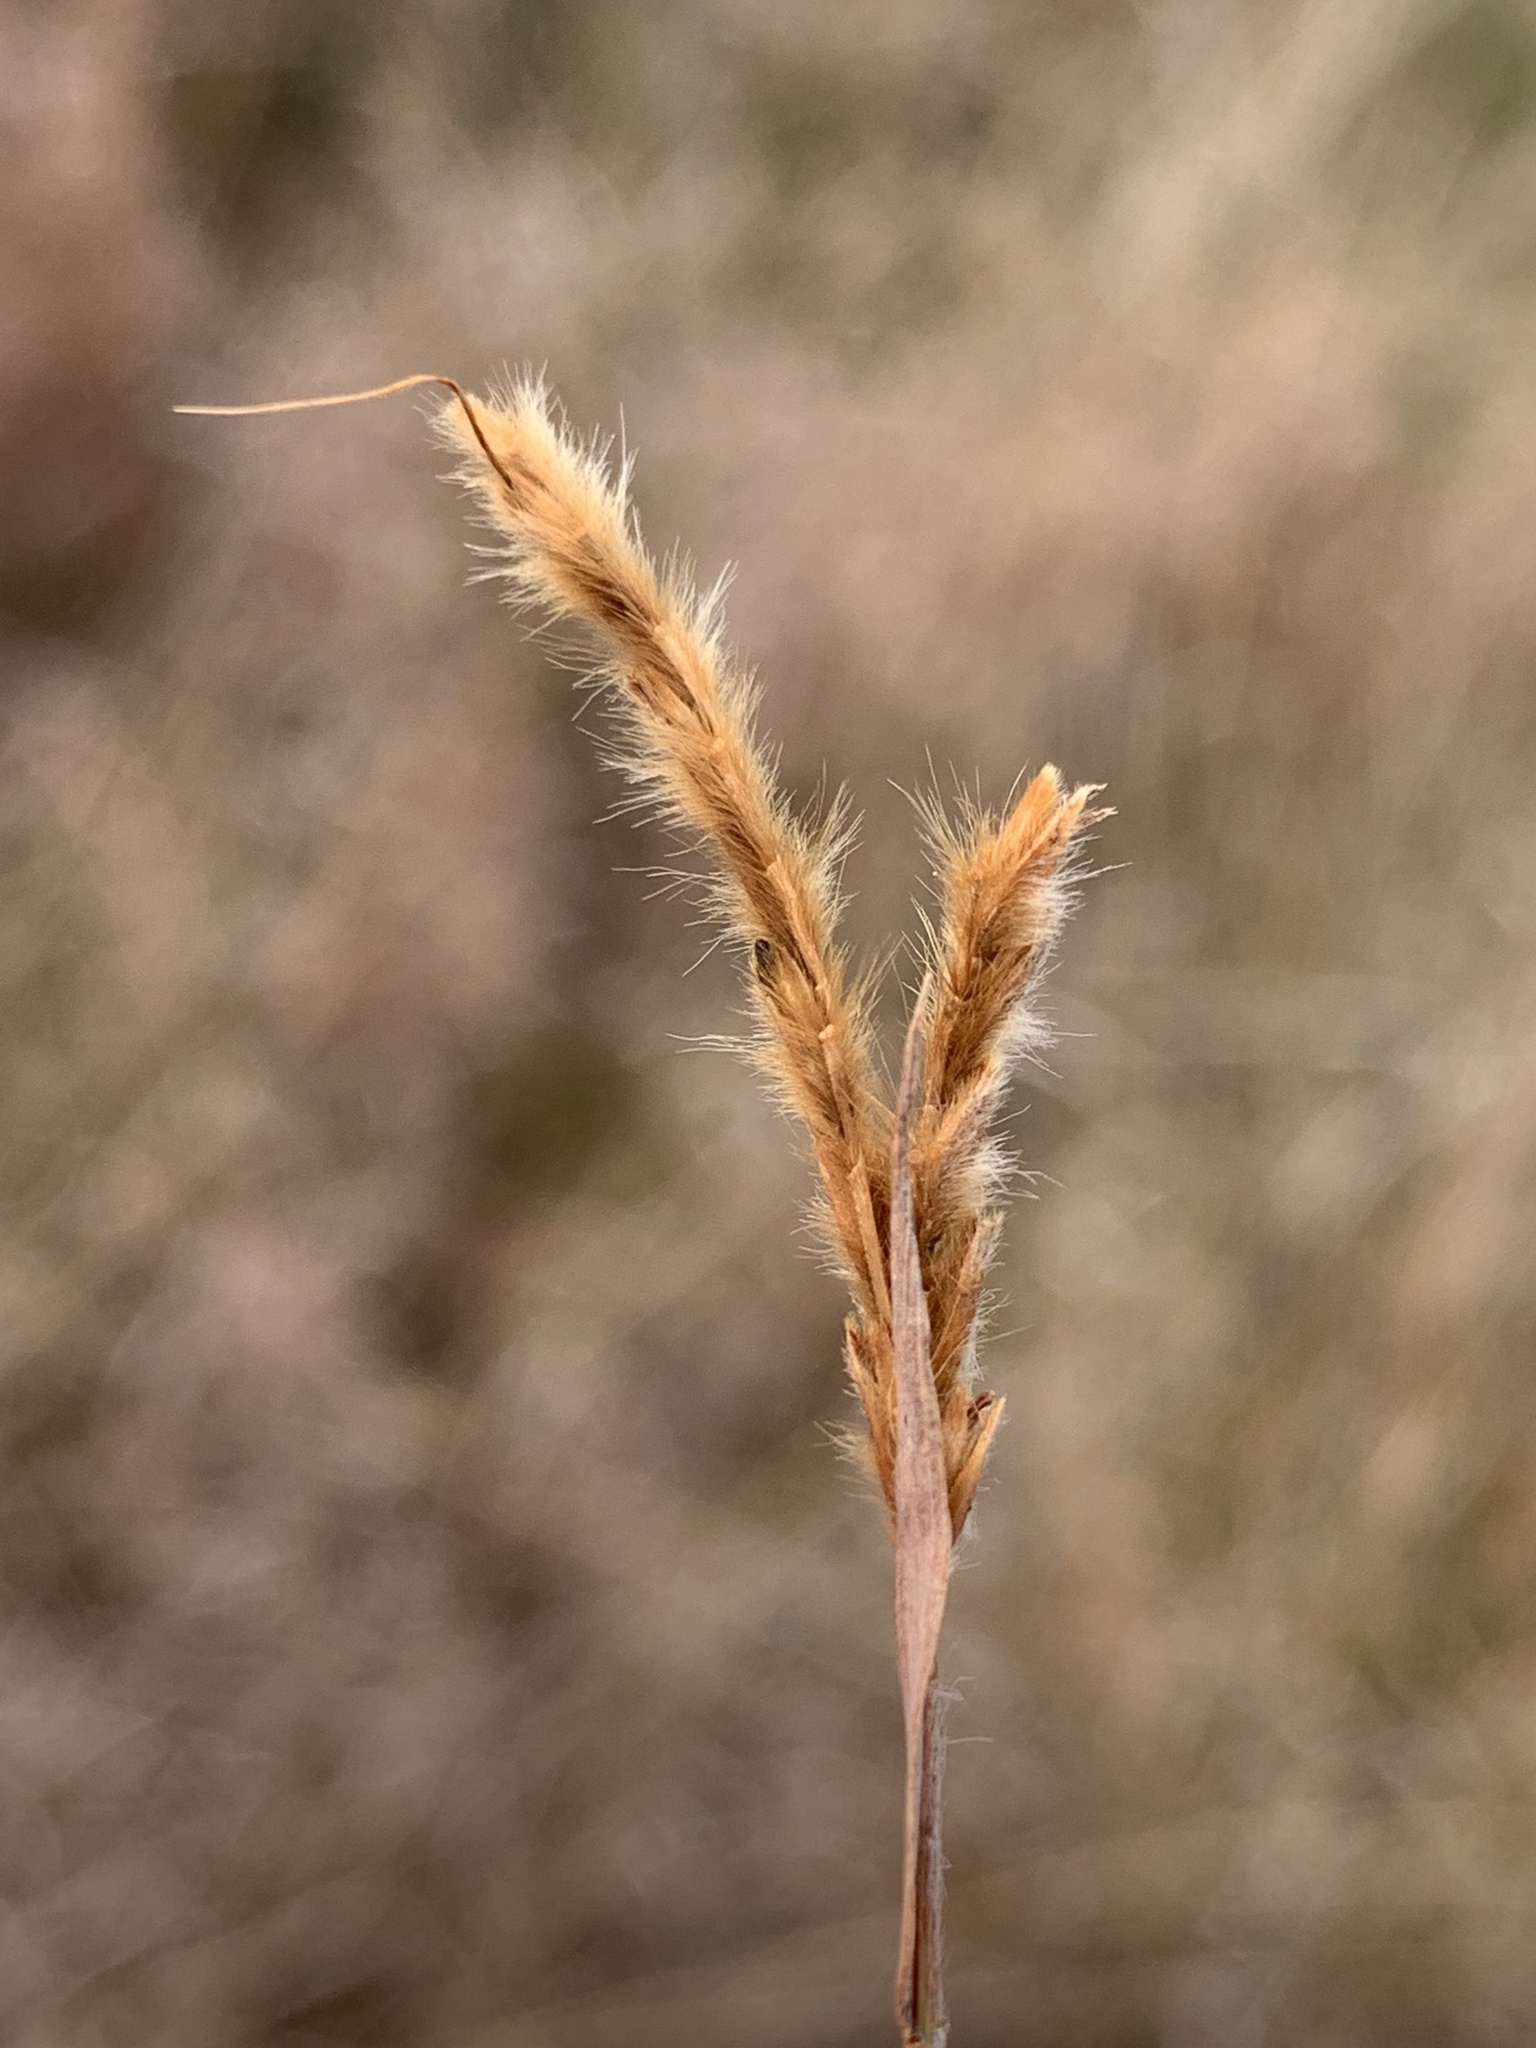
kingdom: Plantae
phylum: Tracheophyta
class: Liliopsida
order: Poales
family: Poaceae
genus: Eulalia
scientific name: Eulalia aurea
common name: Silky browntop
